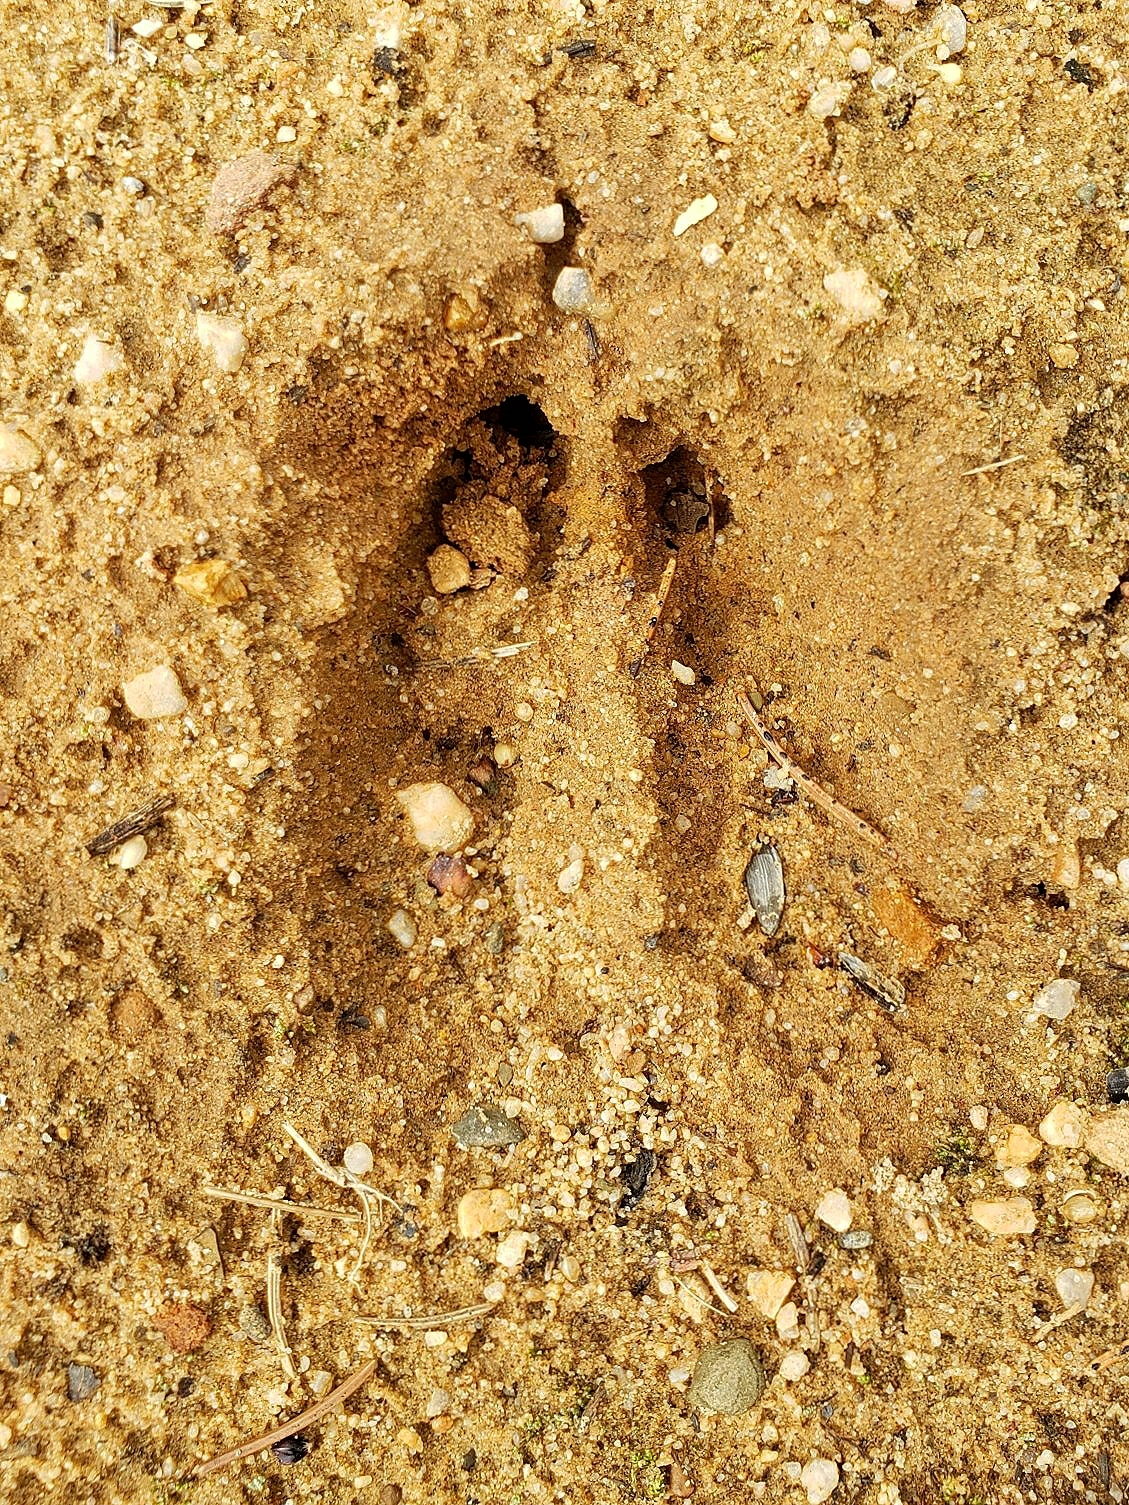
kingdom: Animalia
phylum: Chordata
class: Mammalia
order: Artiodactyla
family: Cervidae
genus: Odocoileus
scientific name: Odocoileus virginianus
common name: White-tailed deer
